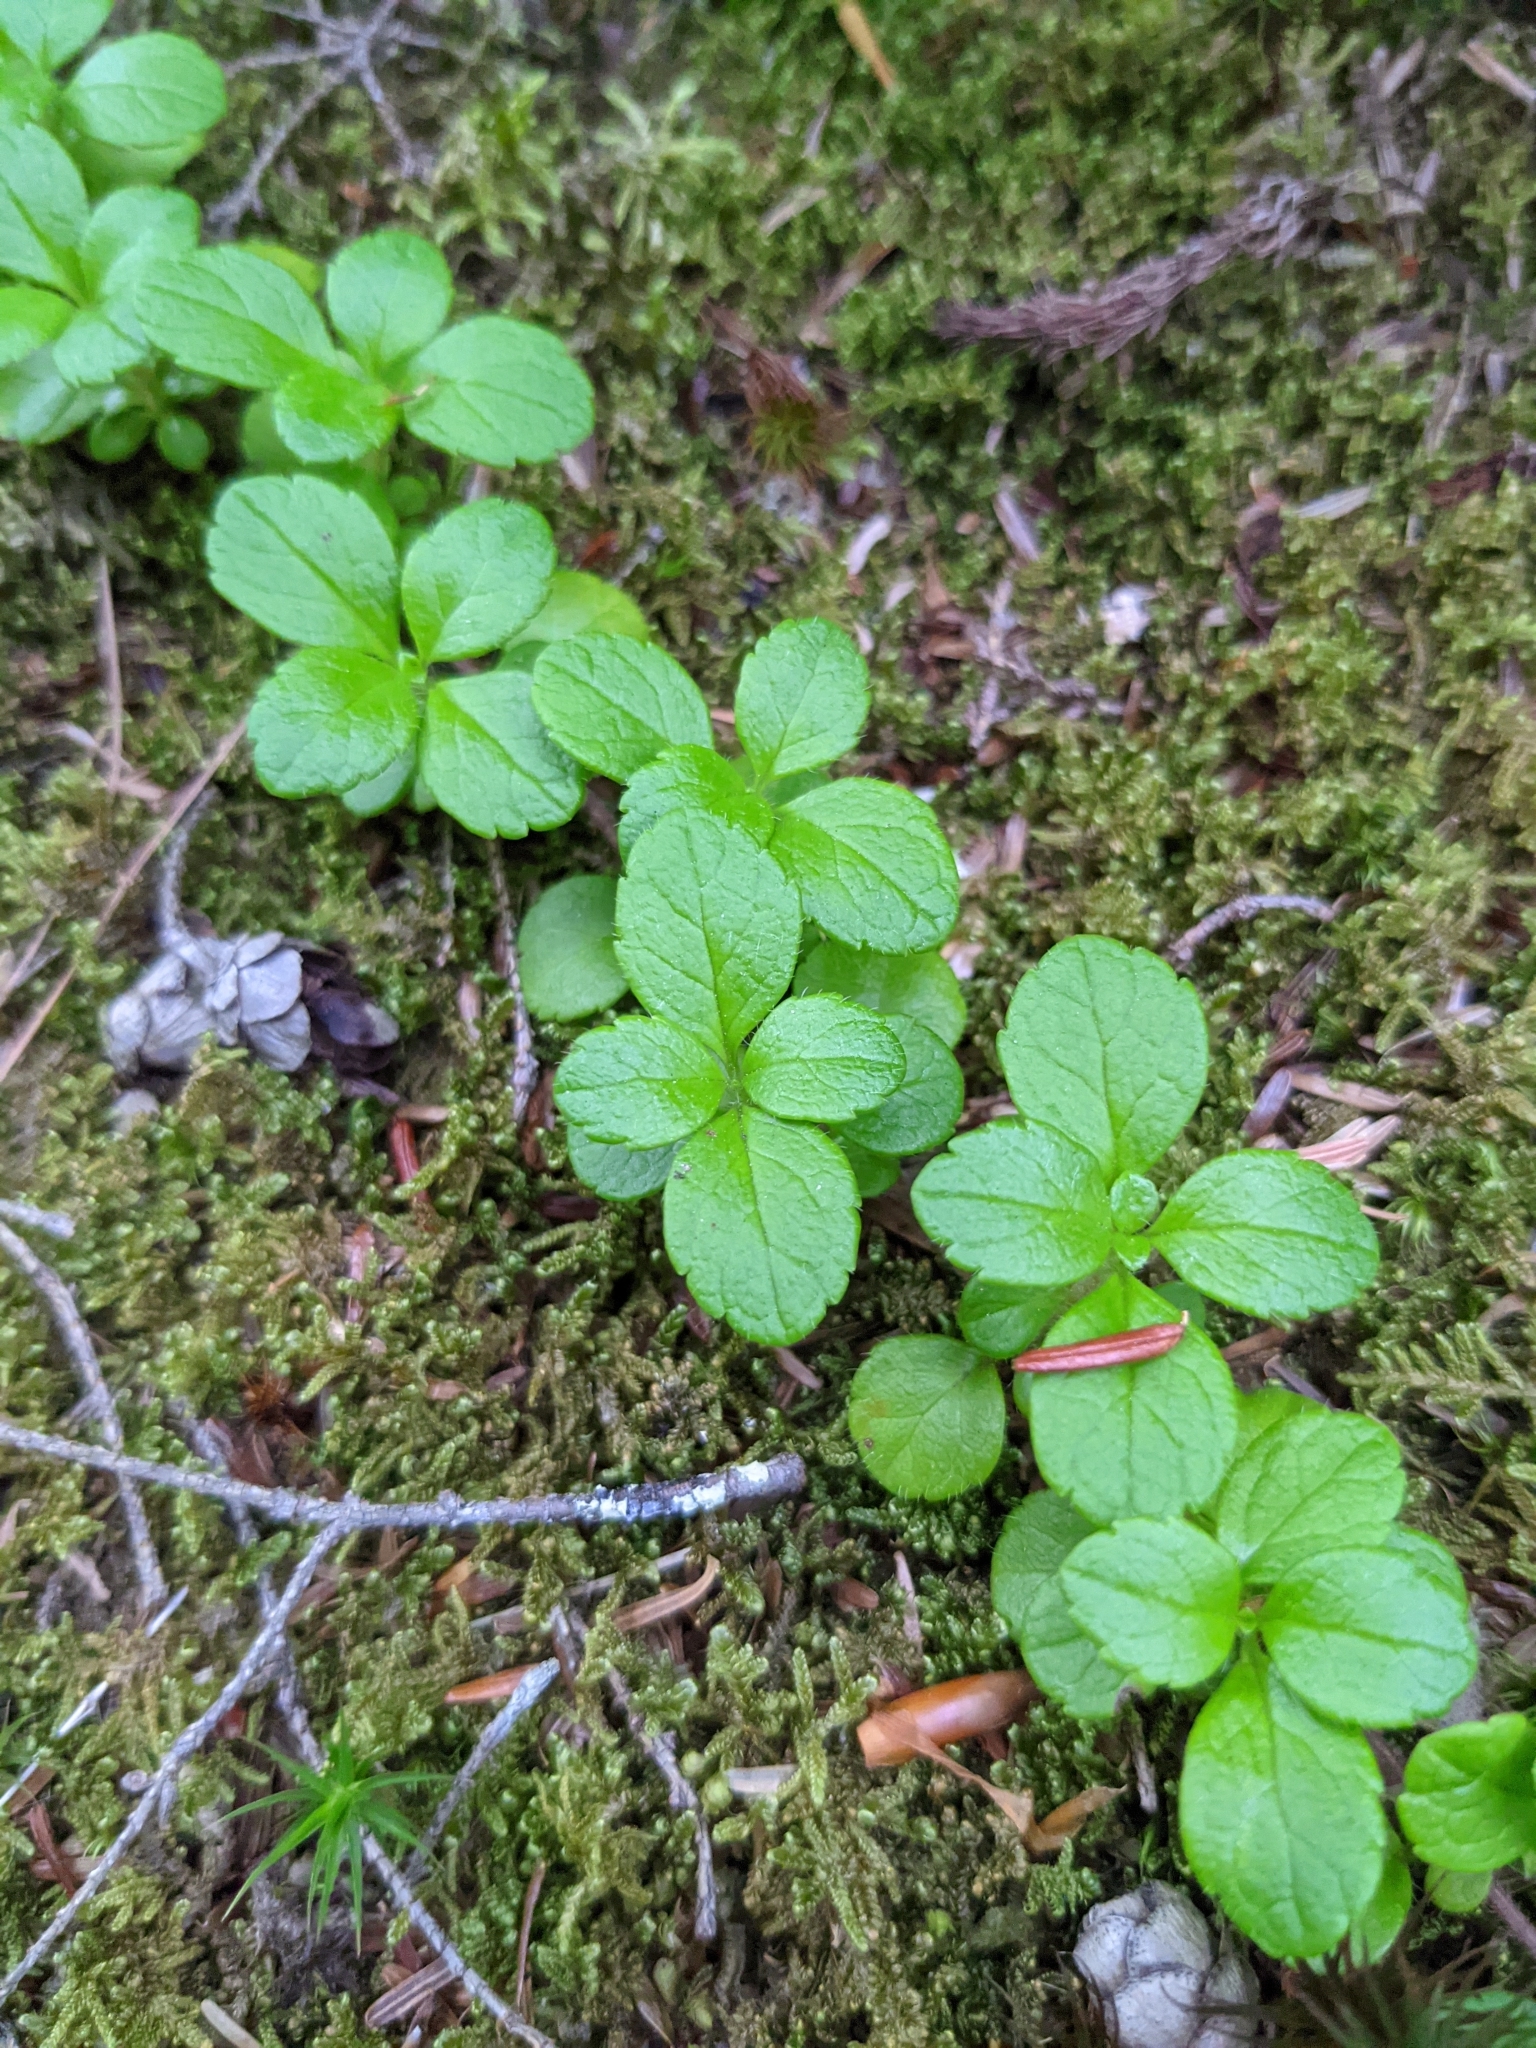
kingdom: Plantae
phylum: Tracheophyta
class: Magnoliopsida
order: Dipsacales
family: Caprifoliaceae
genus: Linnaea
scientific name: Linnaea borealis
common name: Twinflower
